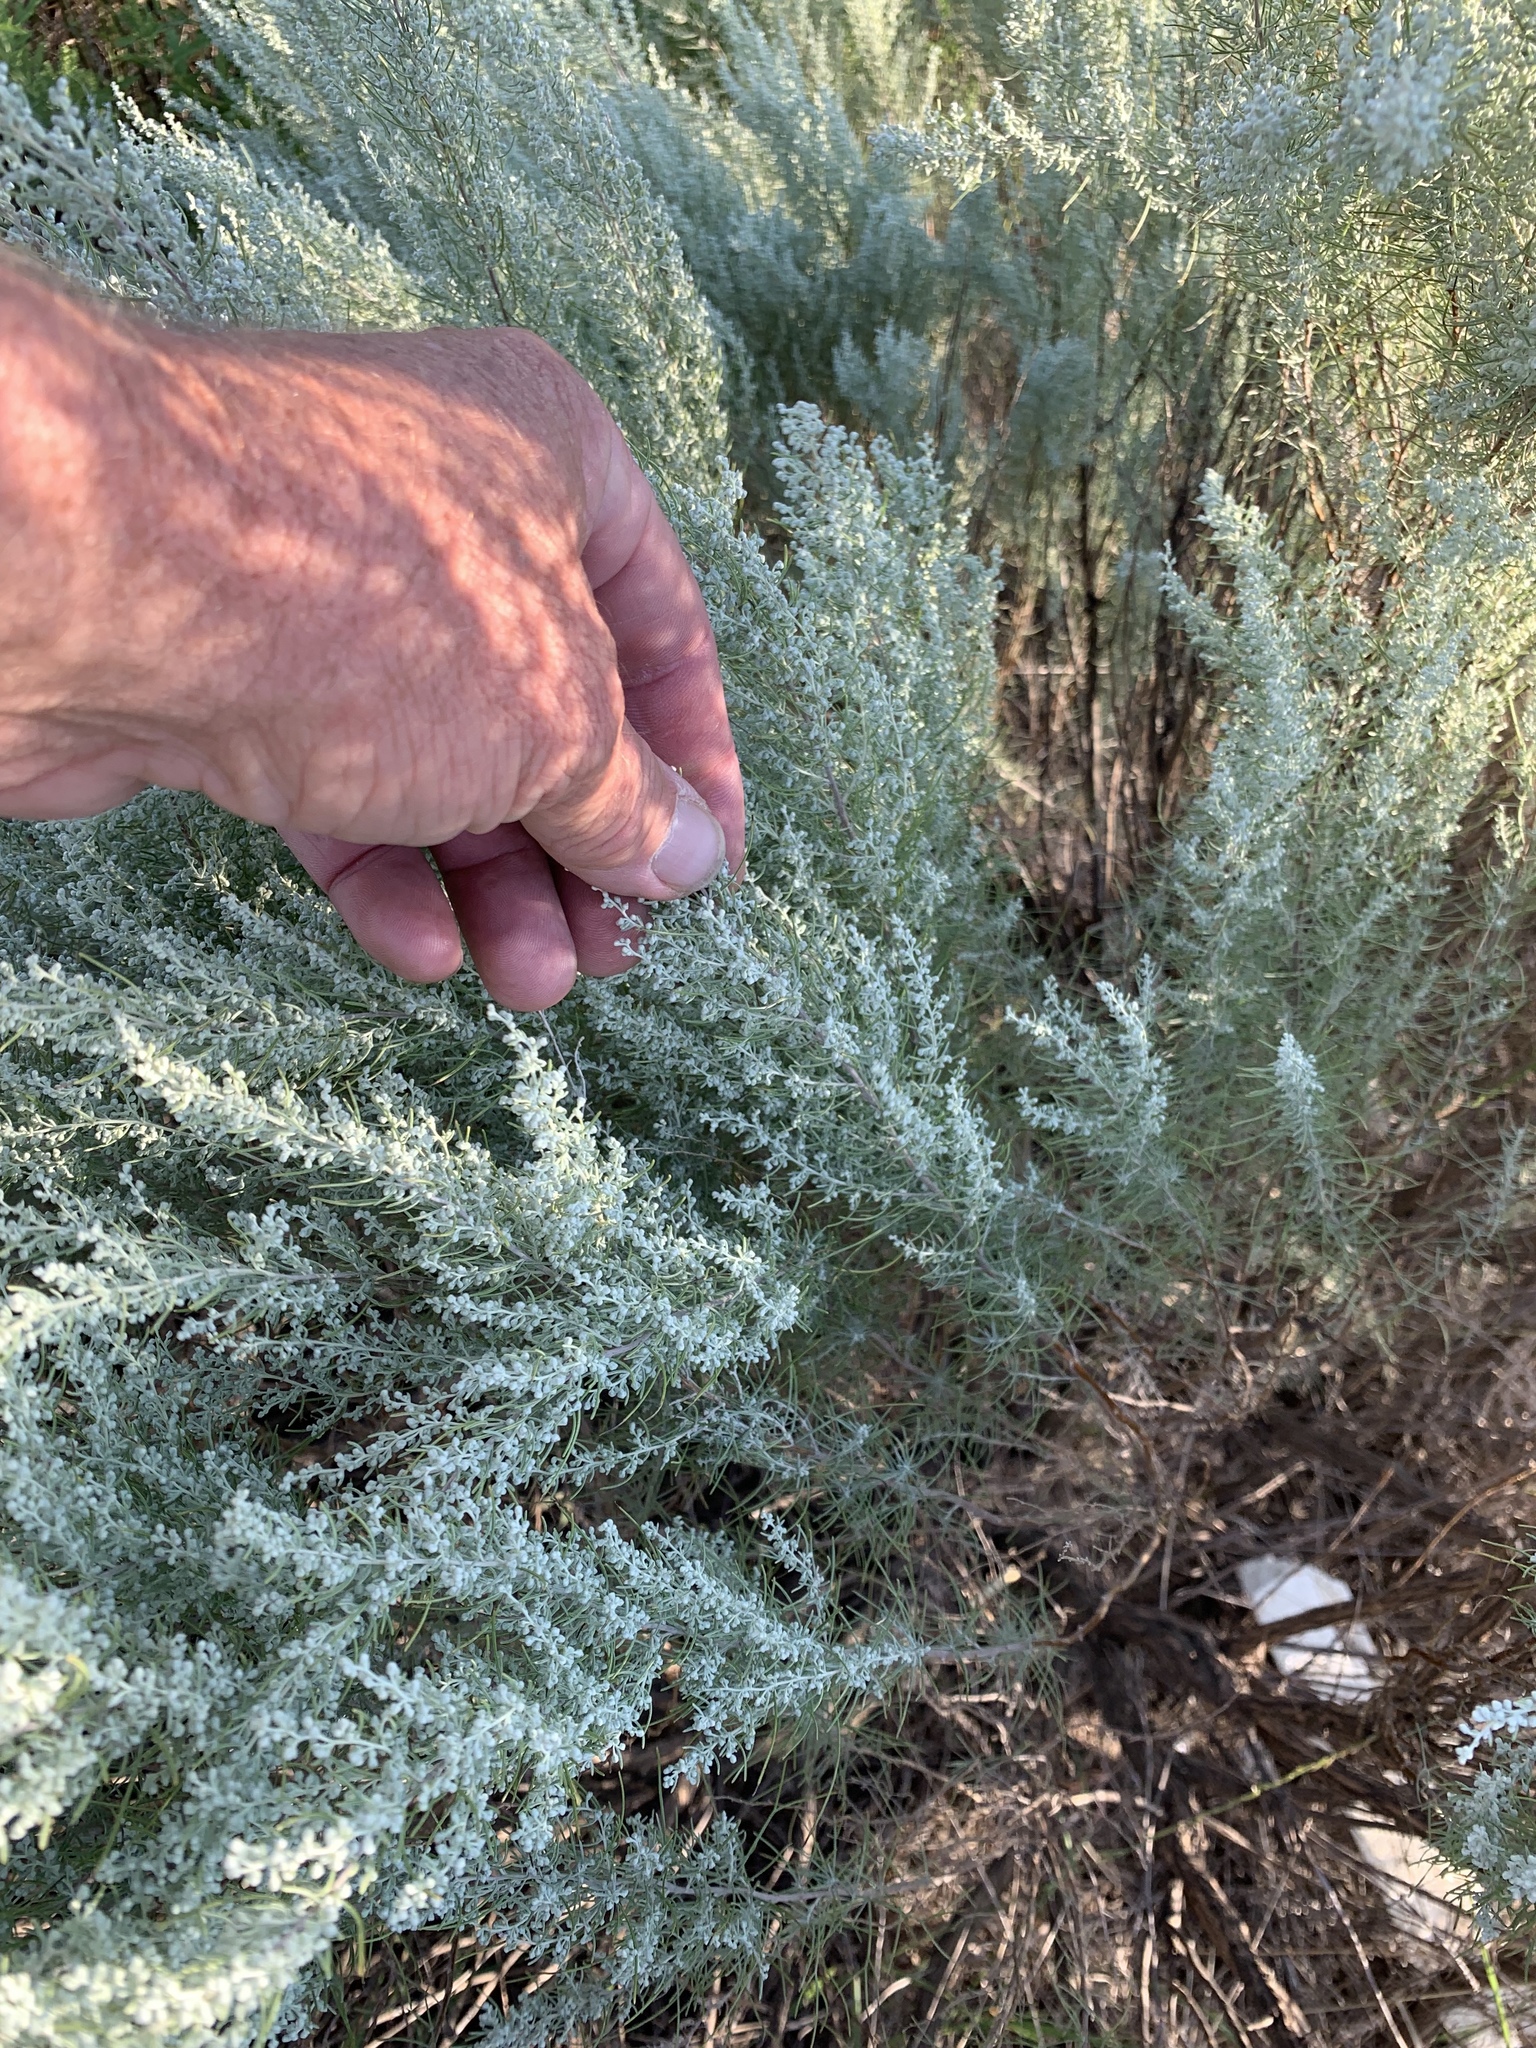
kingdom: Plantae
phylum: Tracheophyta
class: Magnoliopsida
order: Asterales
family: Asteraceae
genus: Artemisia
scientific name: Artemisia filifolia
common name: Sand-sage
